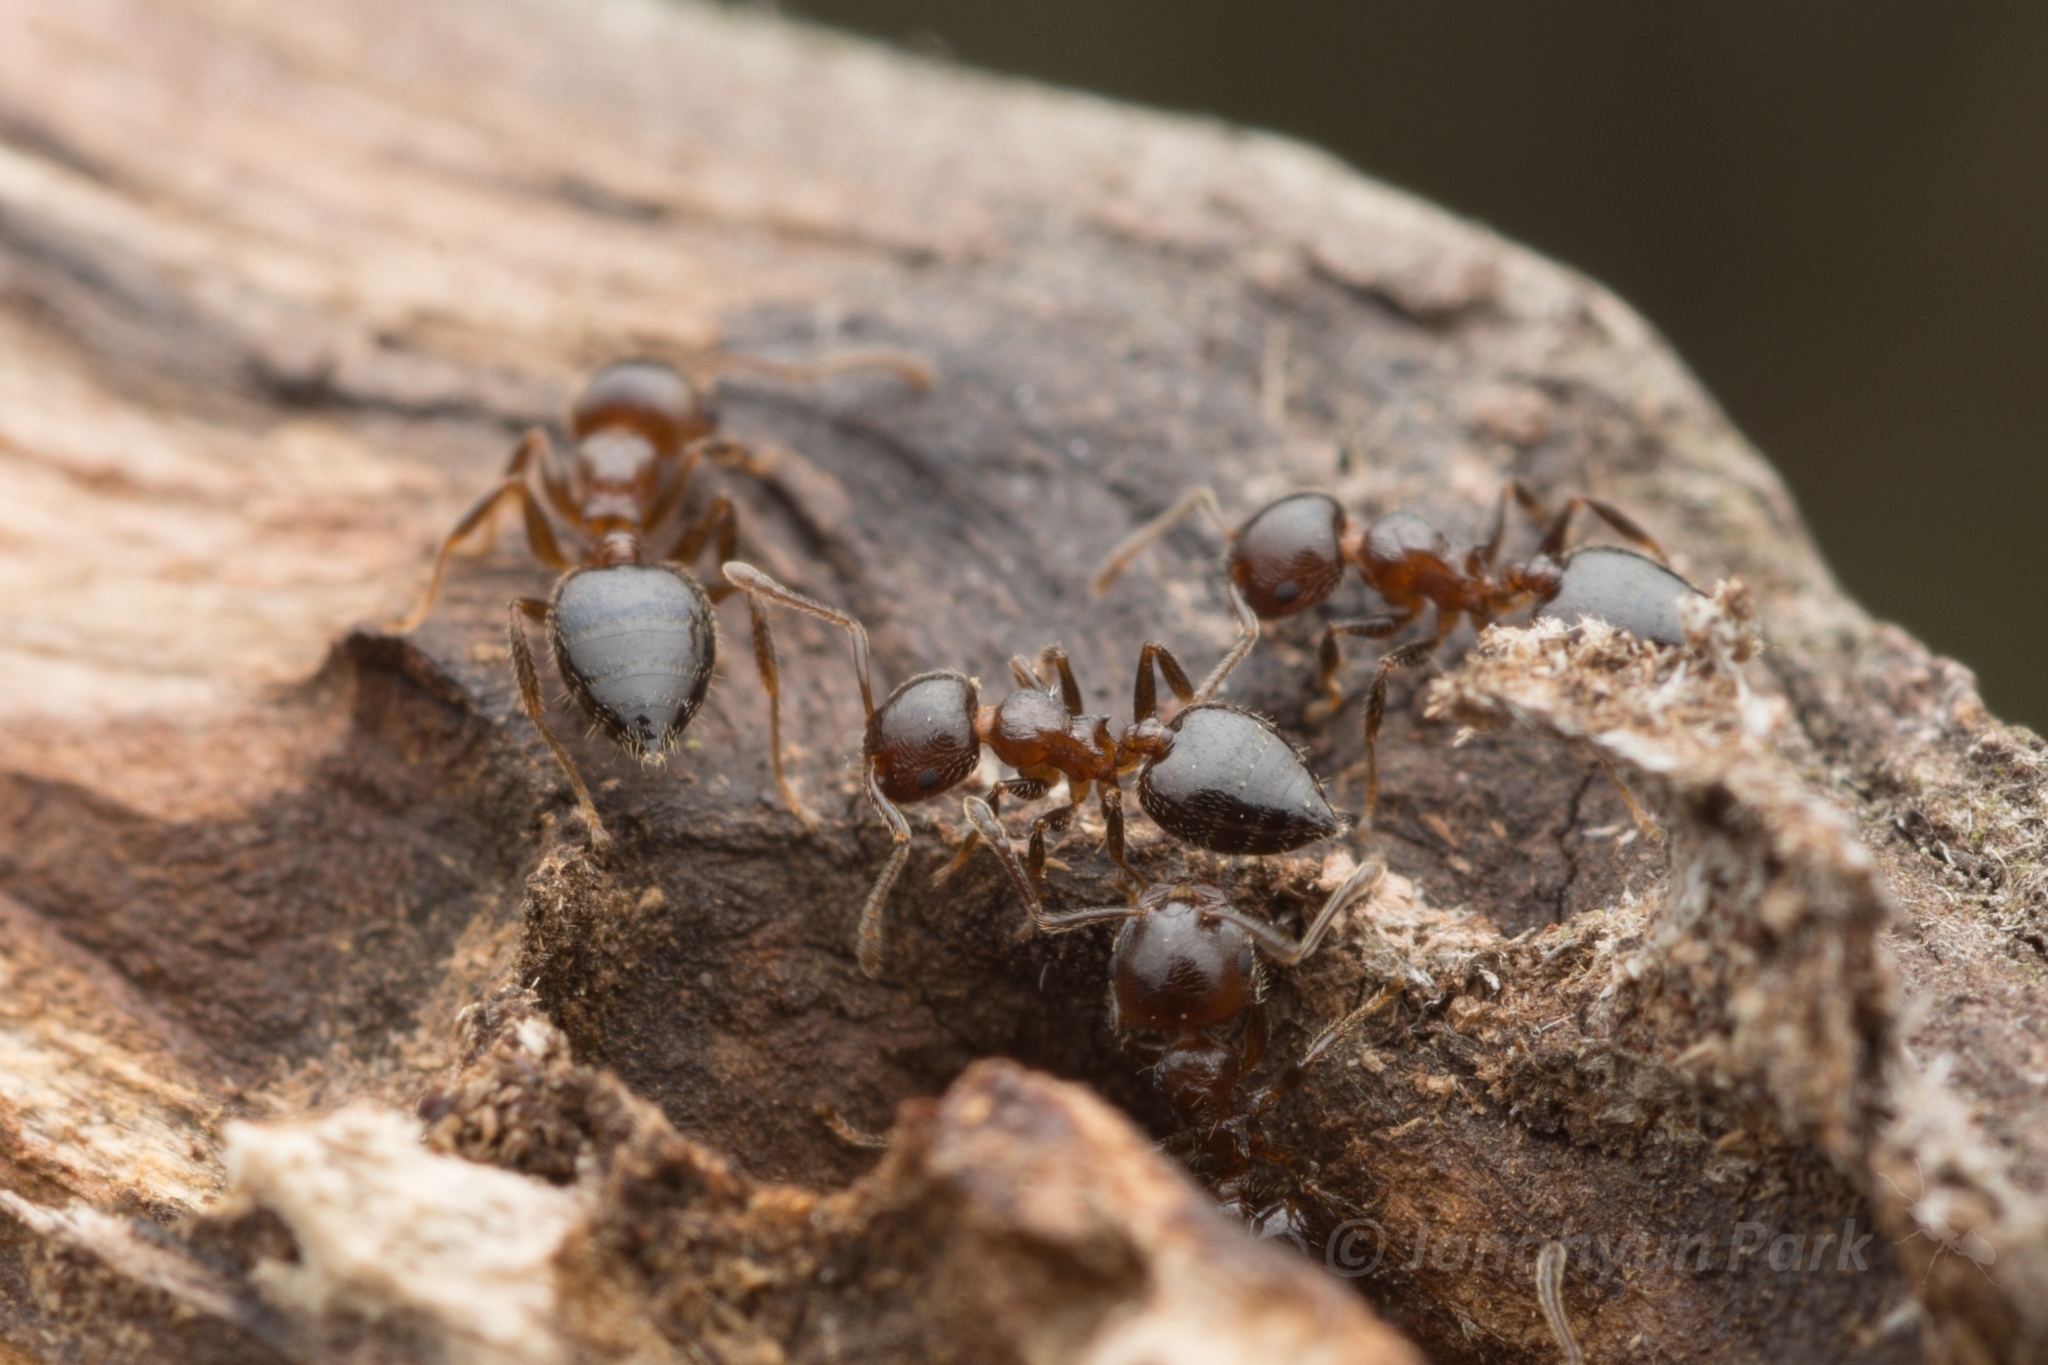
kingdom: Animalia
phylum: Arthropoda
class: Insecta
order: Hymenoptera
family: Formicidae
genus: Crematogaster
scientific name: Crematogaster matsumurai
